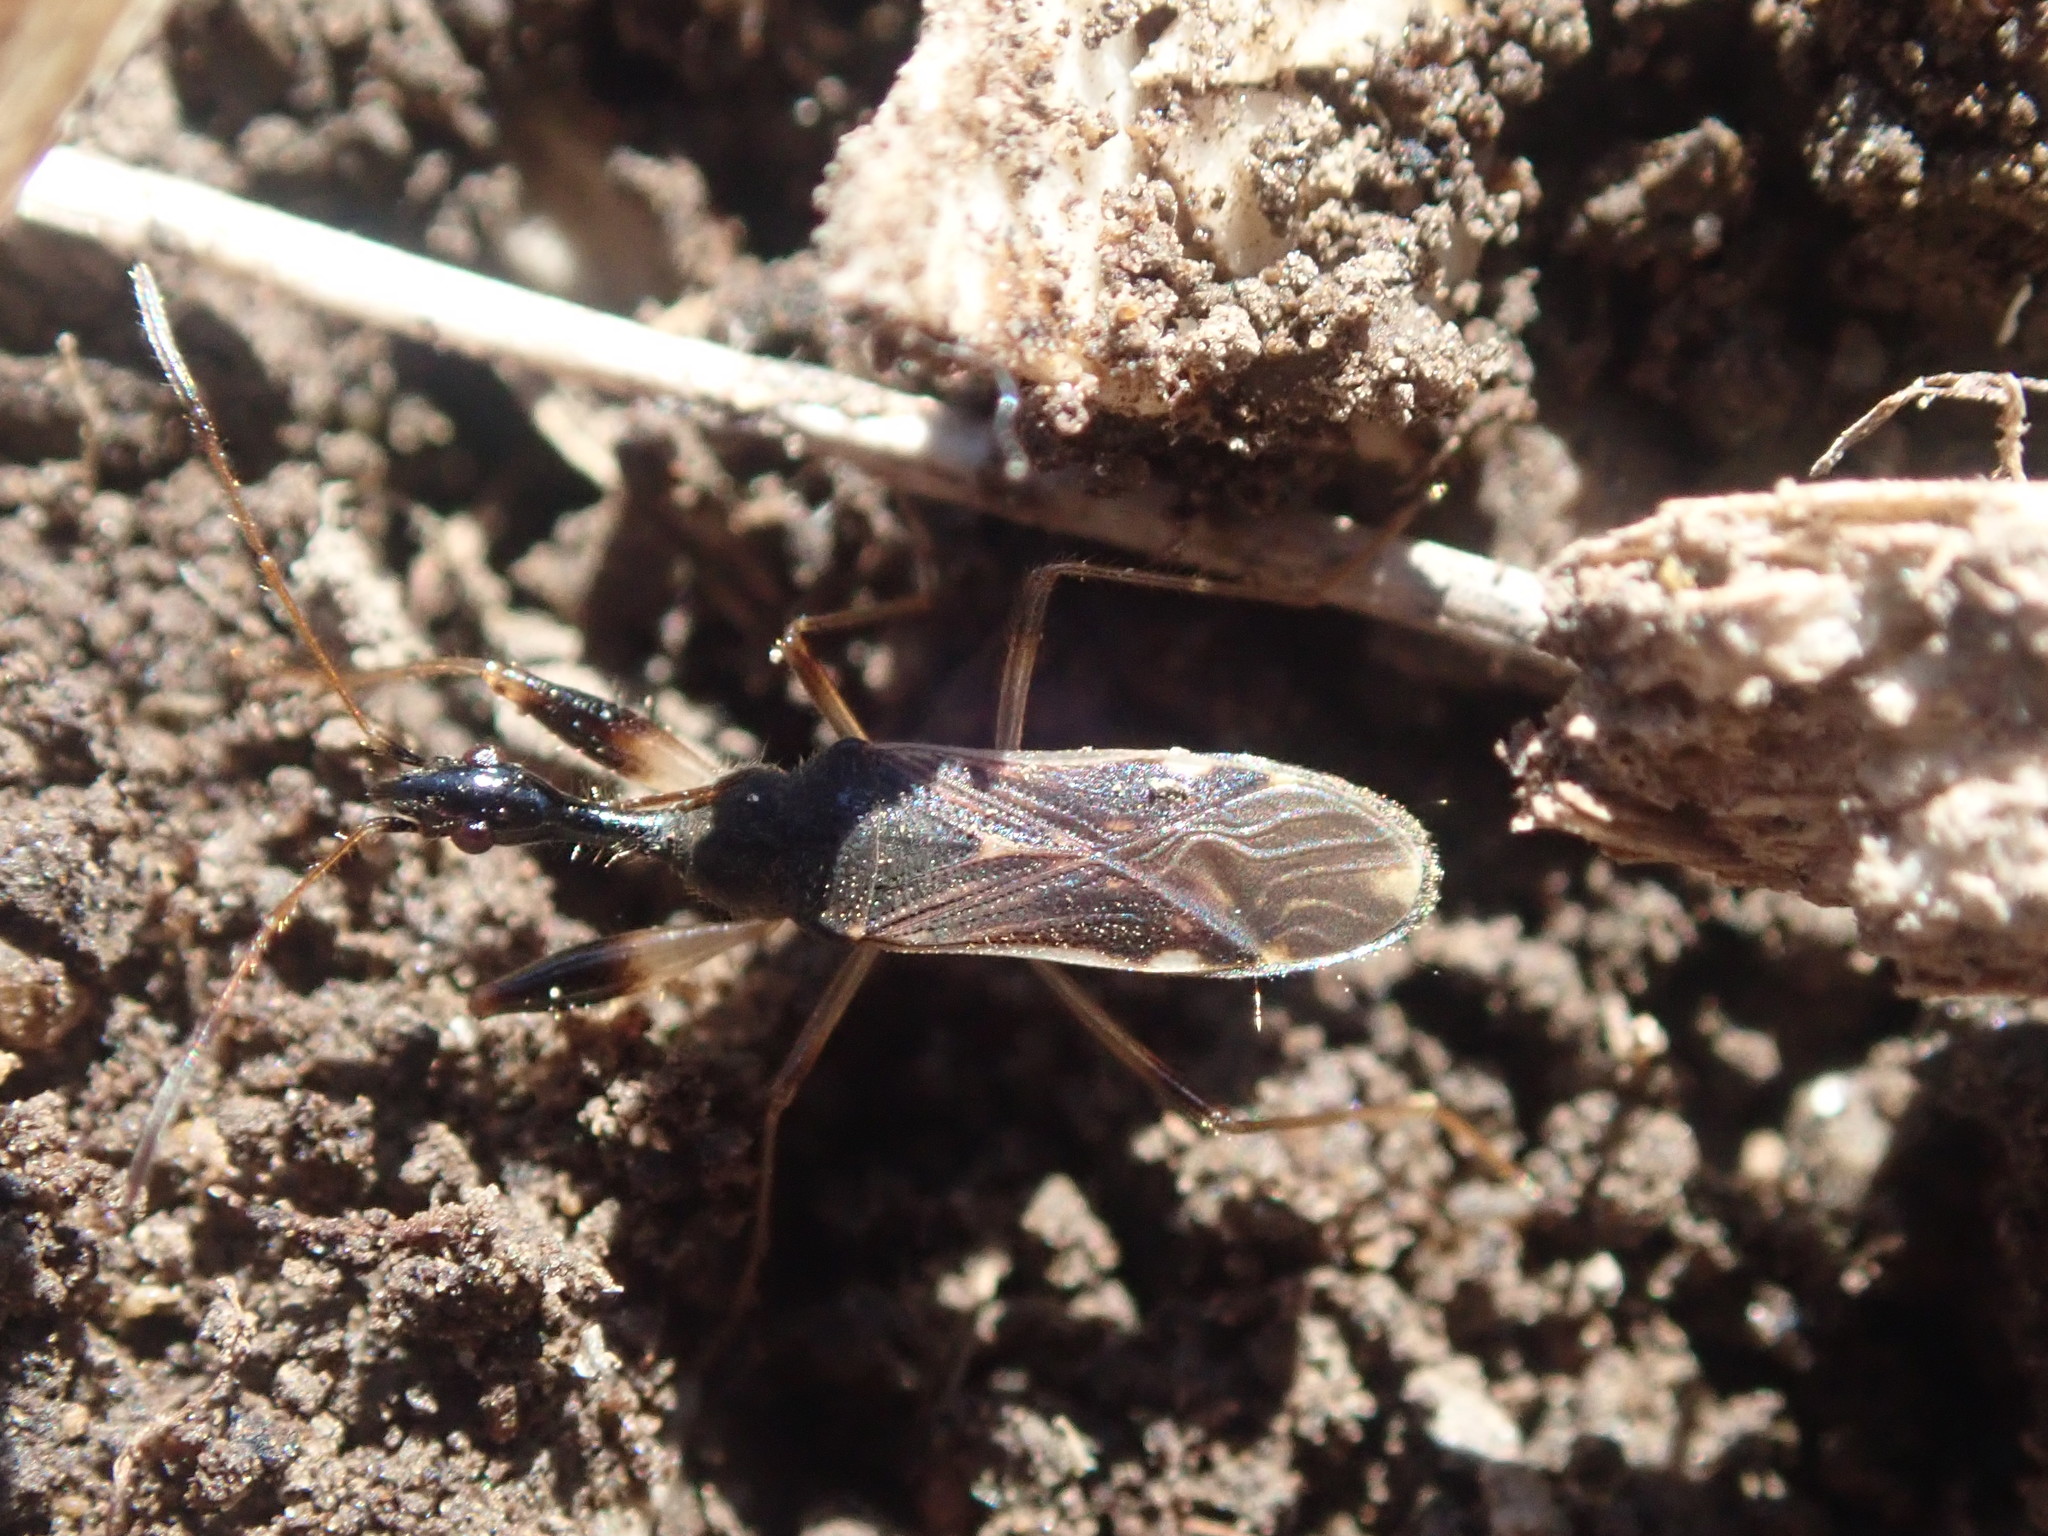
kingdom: Animalia
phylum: Arthropoda
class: Insecta
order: Hemiptera
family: Rhyparochromidae
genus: Myodocha
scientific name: Myodocha serripes
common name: Long-necked seed bug
